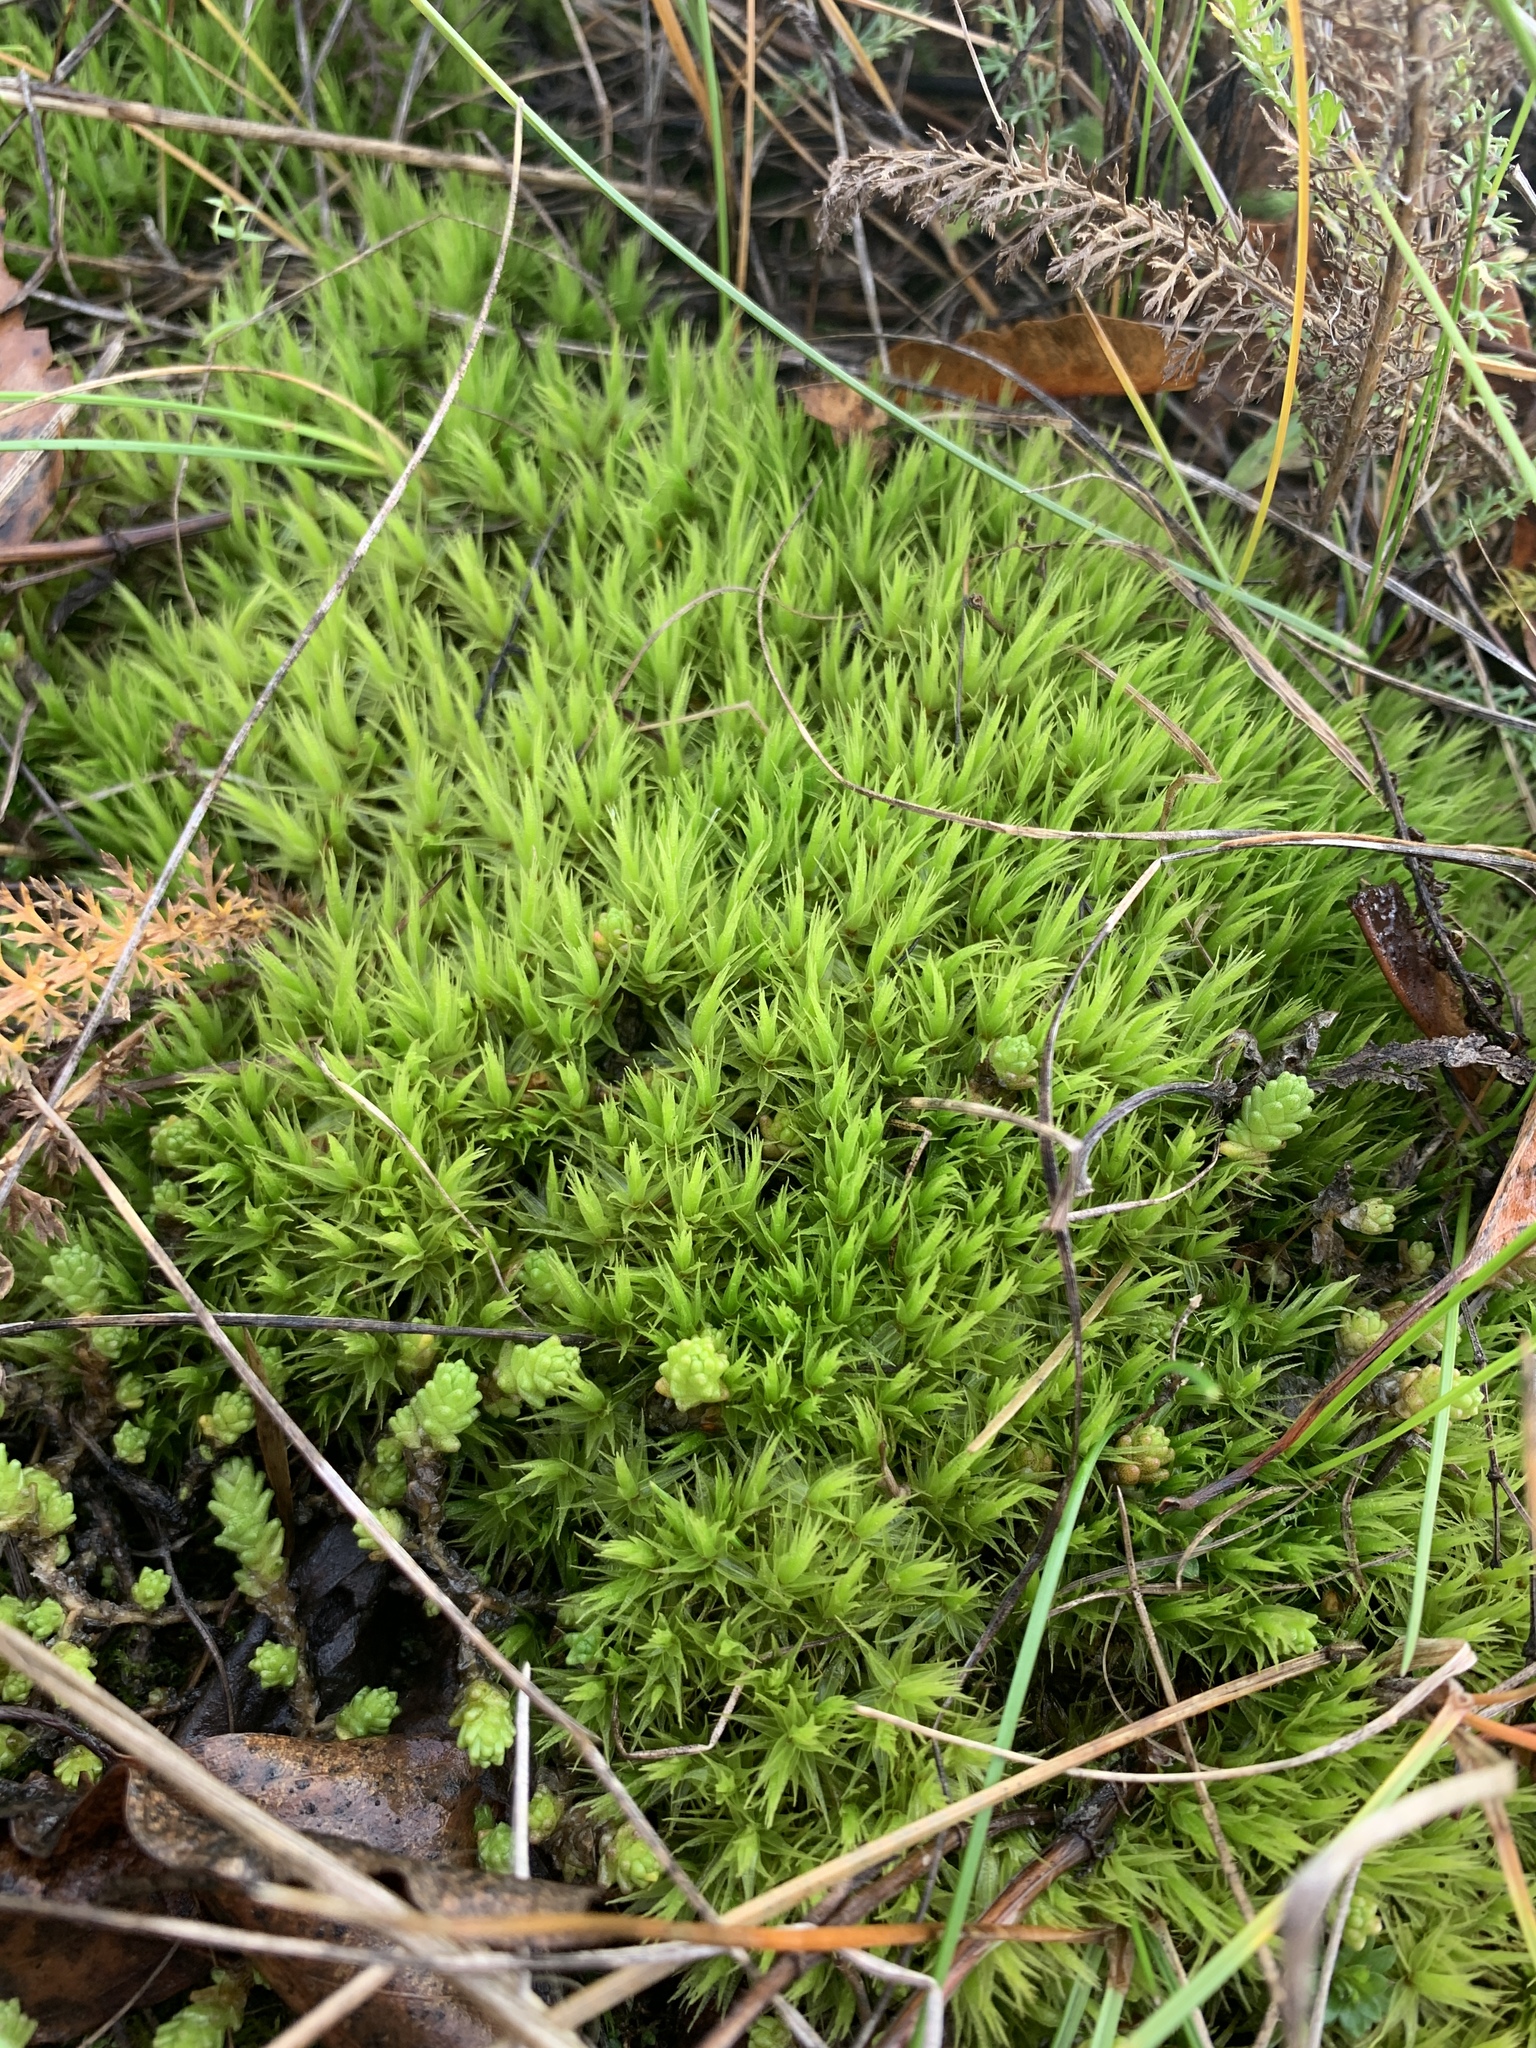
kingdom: Plantae
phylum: Bryophyta
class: Bryopsida
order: Dicranales
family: Dicranaceae
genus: Dicranum
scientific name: Dicranum polysetum
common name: Rugose fork-moss
